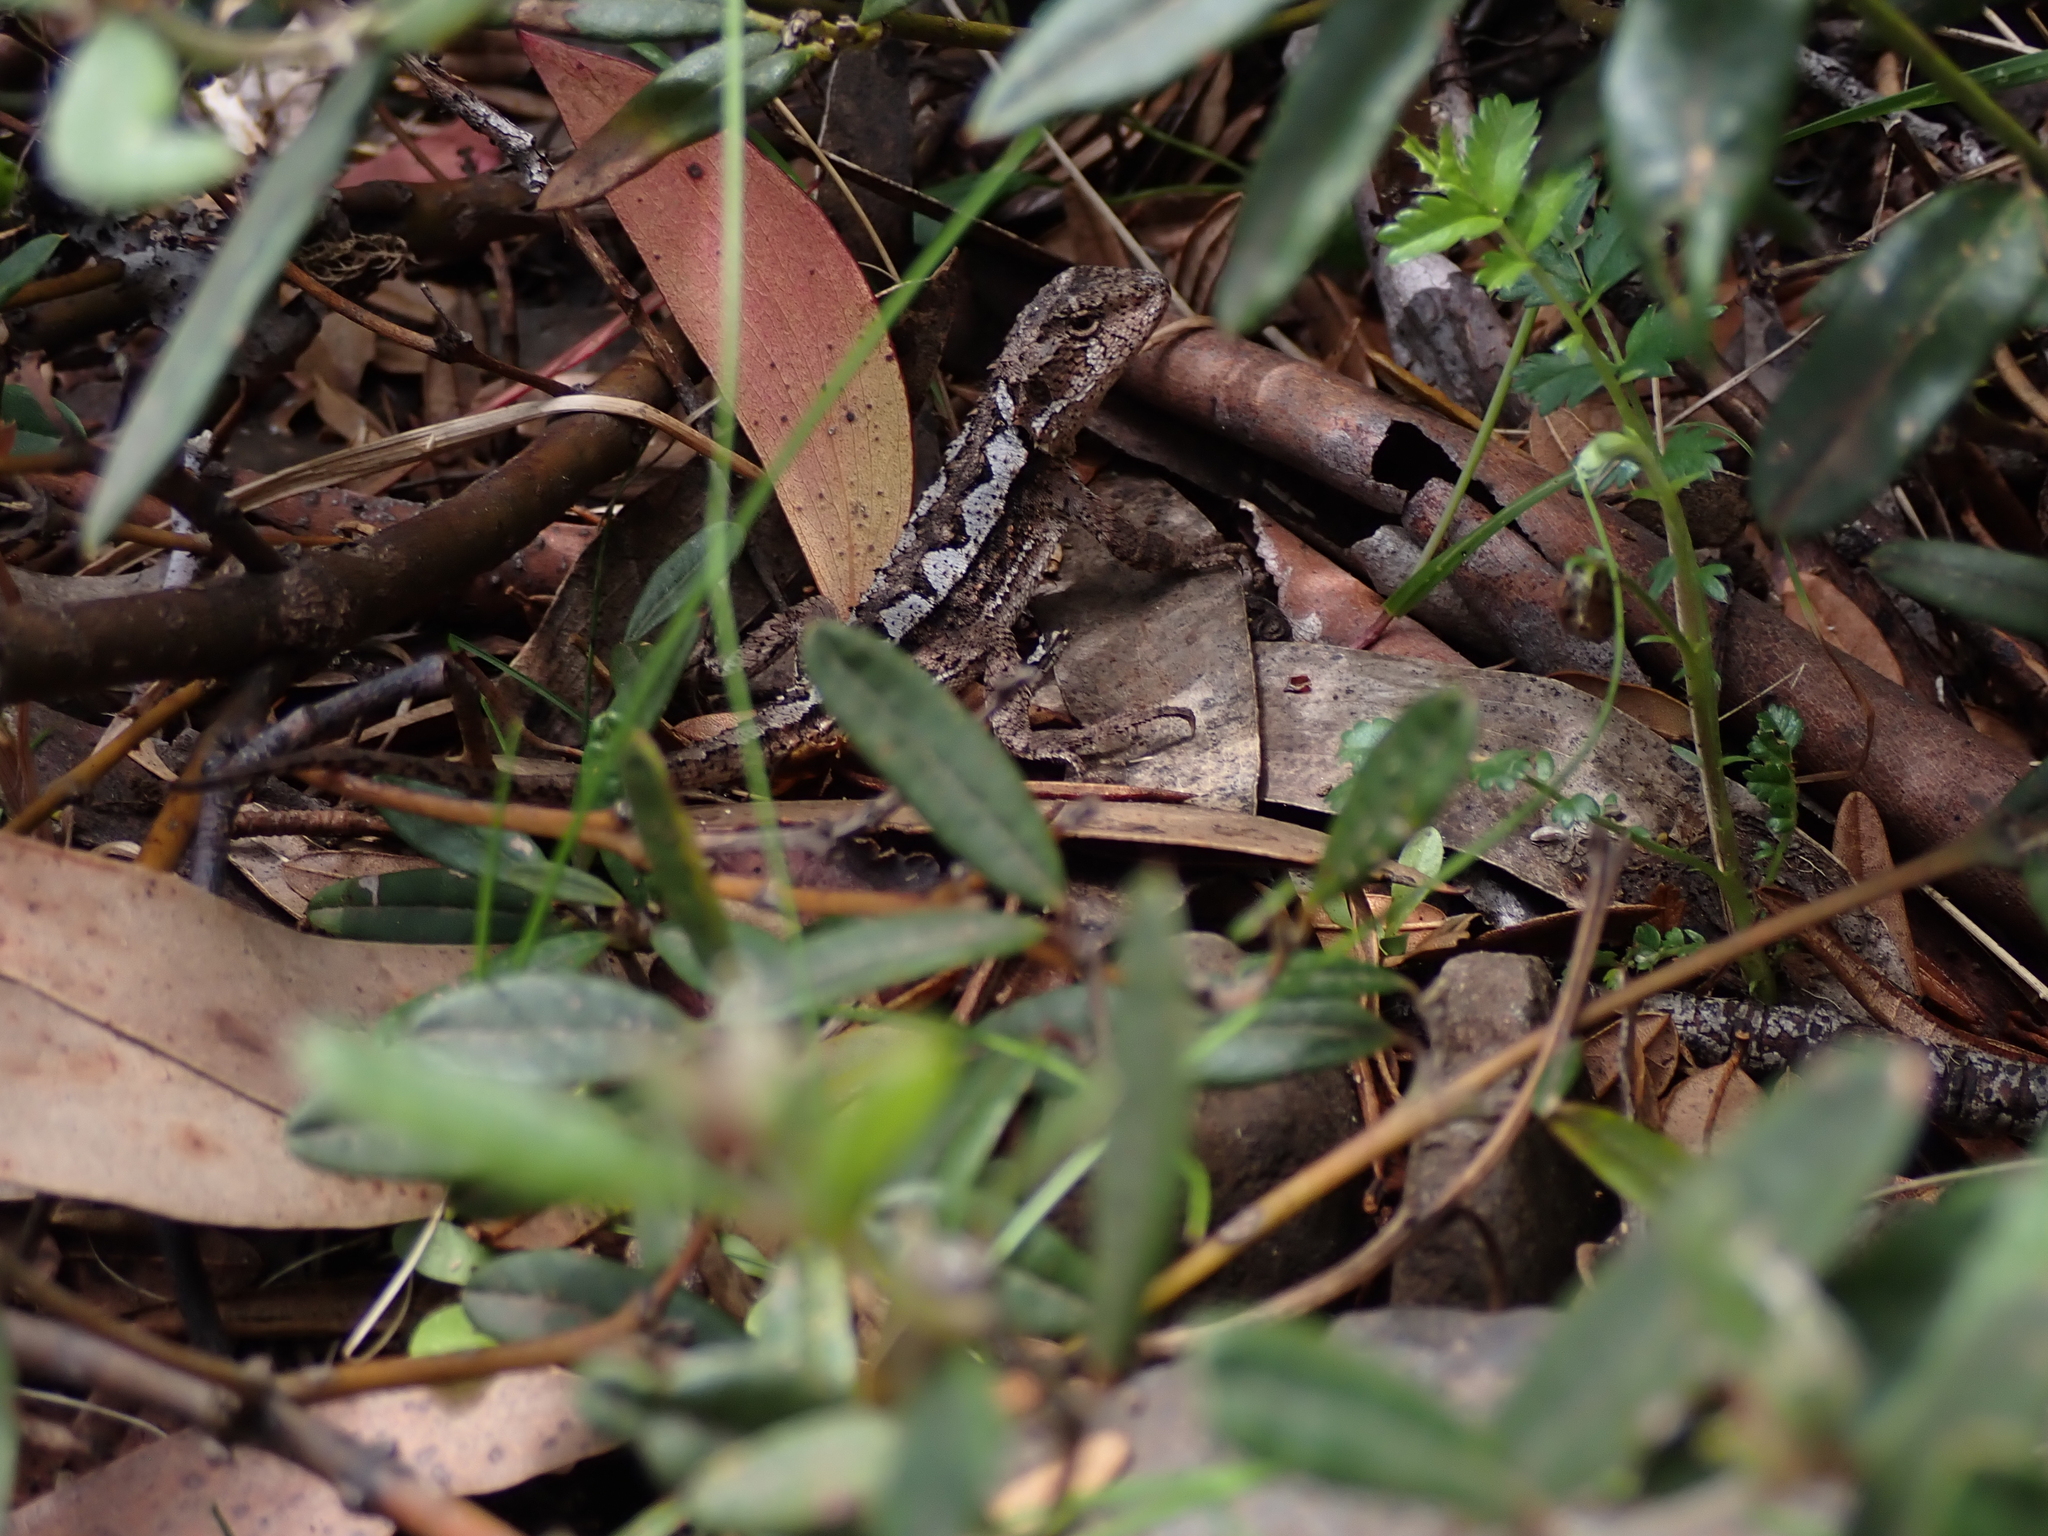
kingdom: Animalia
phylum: Chordata
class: Squamata
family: Agamidae
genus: Rankinia
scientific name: Rankinia diemensis
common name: Mountain dragon
